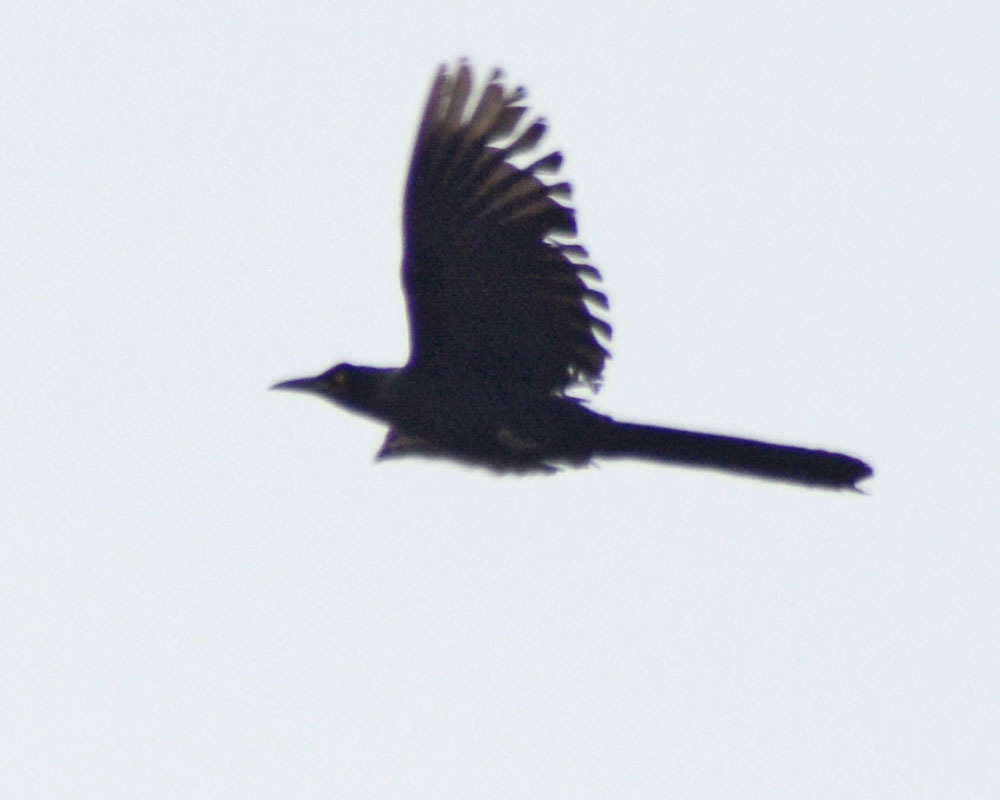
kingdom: Animalia
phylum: Chordata
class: Aves
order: Passeriformes
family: Icteridae
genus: Quiscalus
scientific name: Quiscalus mexicanus
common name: Great-tailed grackle
